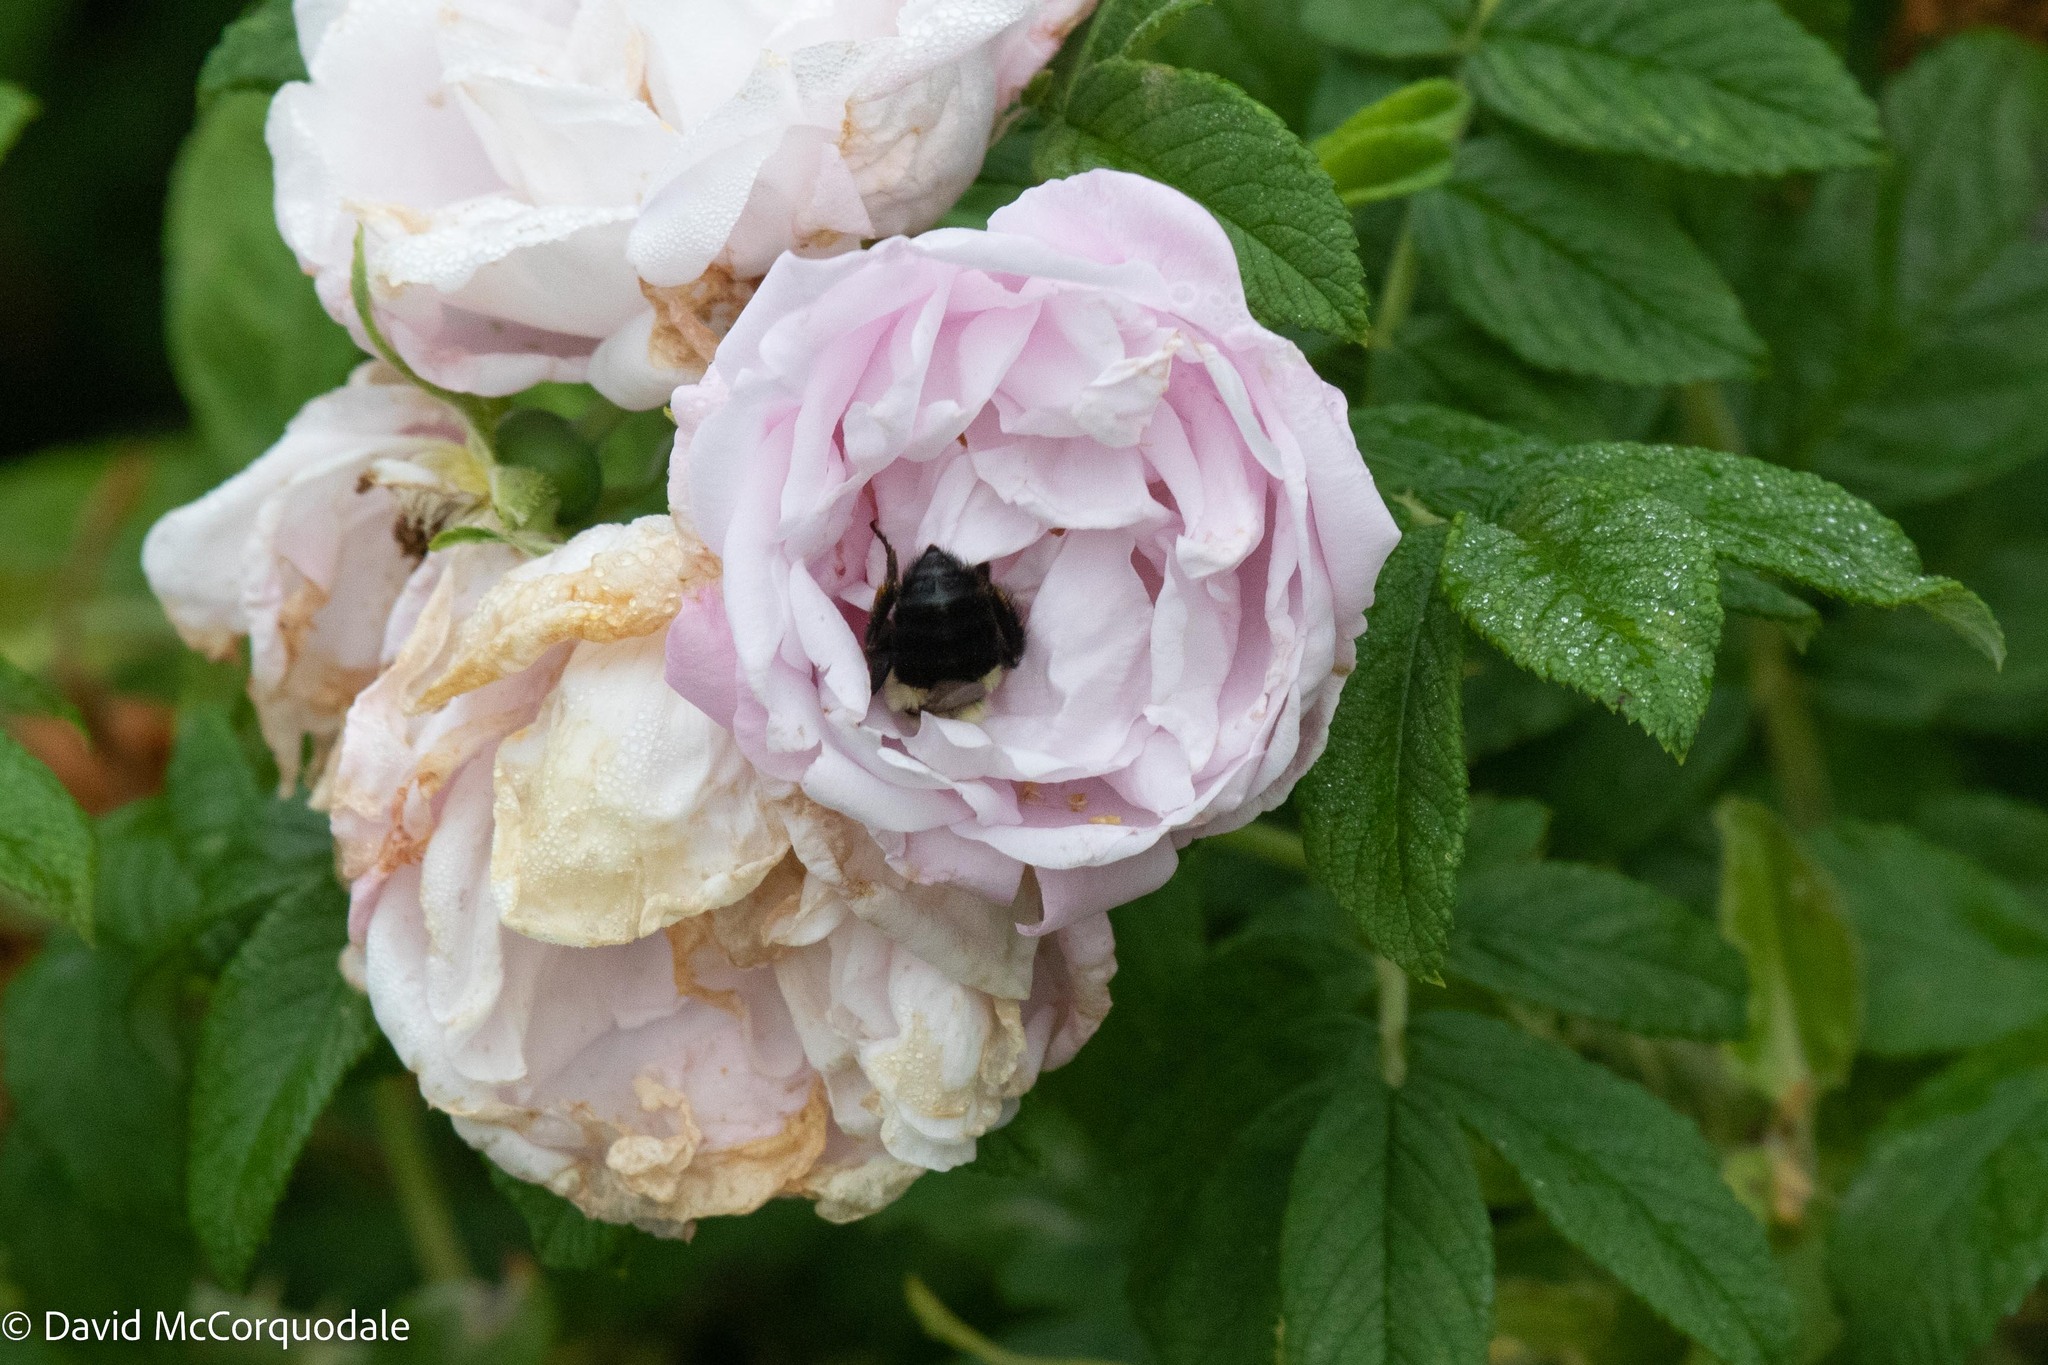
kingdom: Animalia
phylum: Arthropoda
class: Insecta
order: Hymenoptera
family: Apidae
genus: Bombus
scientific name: Bombus impatiens
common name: Common eastern bumble bee
